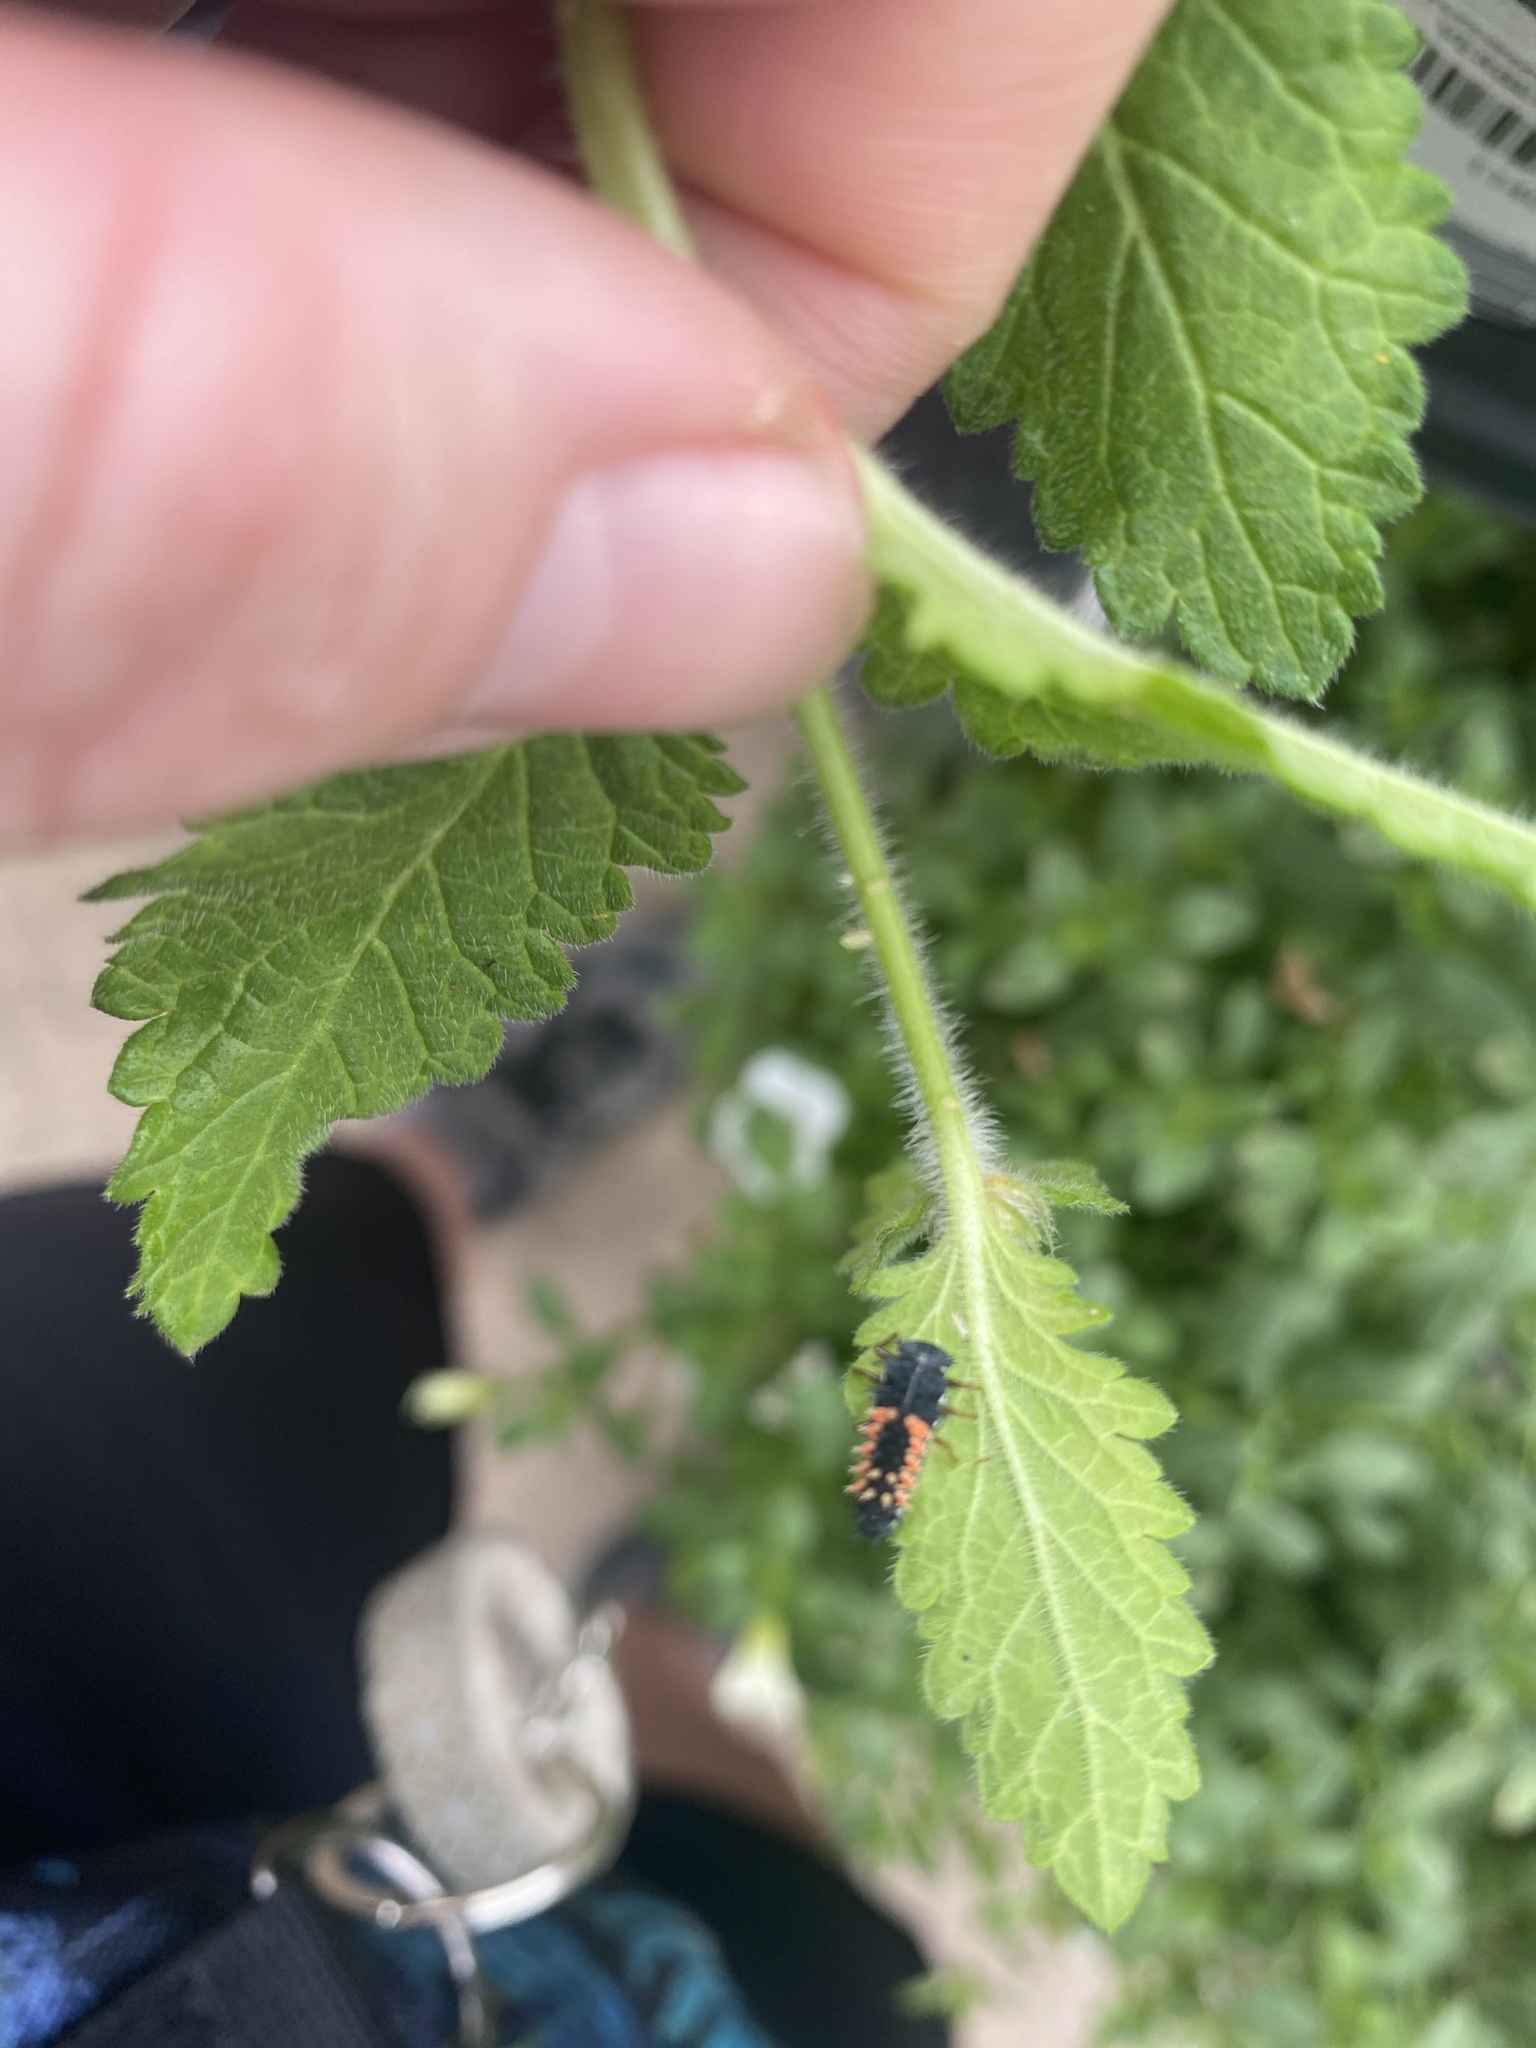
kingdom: Animalia
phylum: Arthropoda
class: Insecta
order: Coleoptera
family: Coccinellidae
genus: Harmonia
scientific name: Harmonia axyridis
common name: Harlequin ladybird
